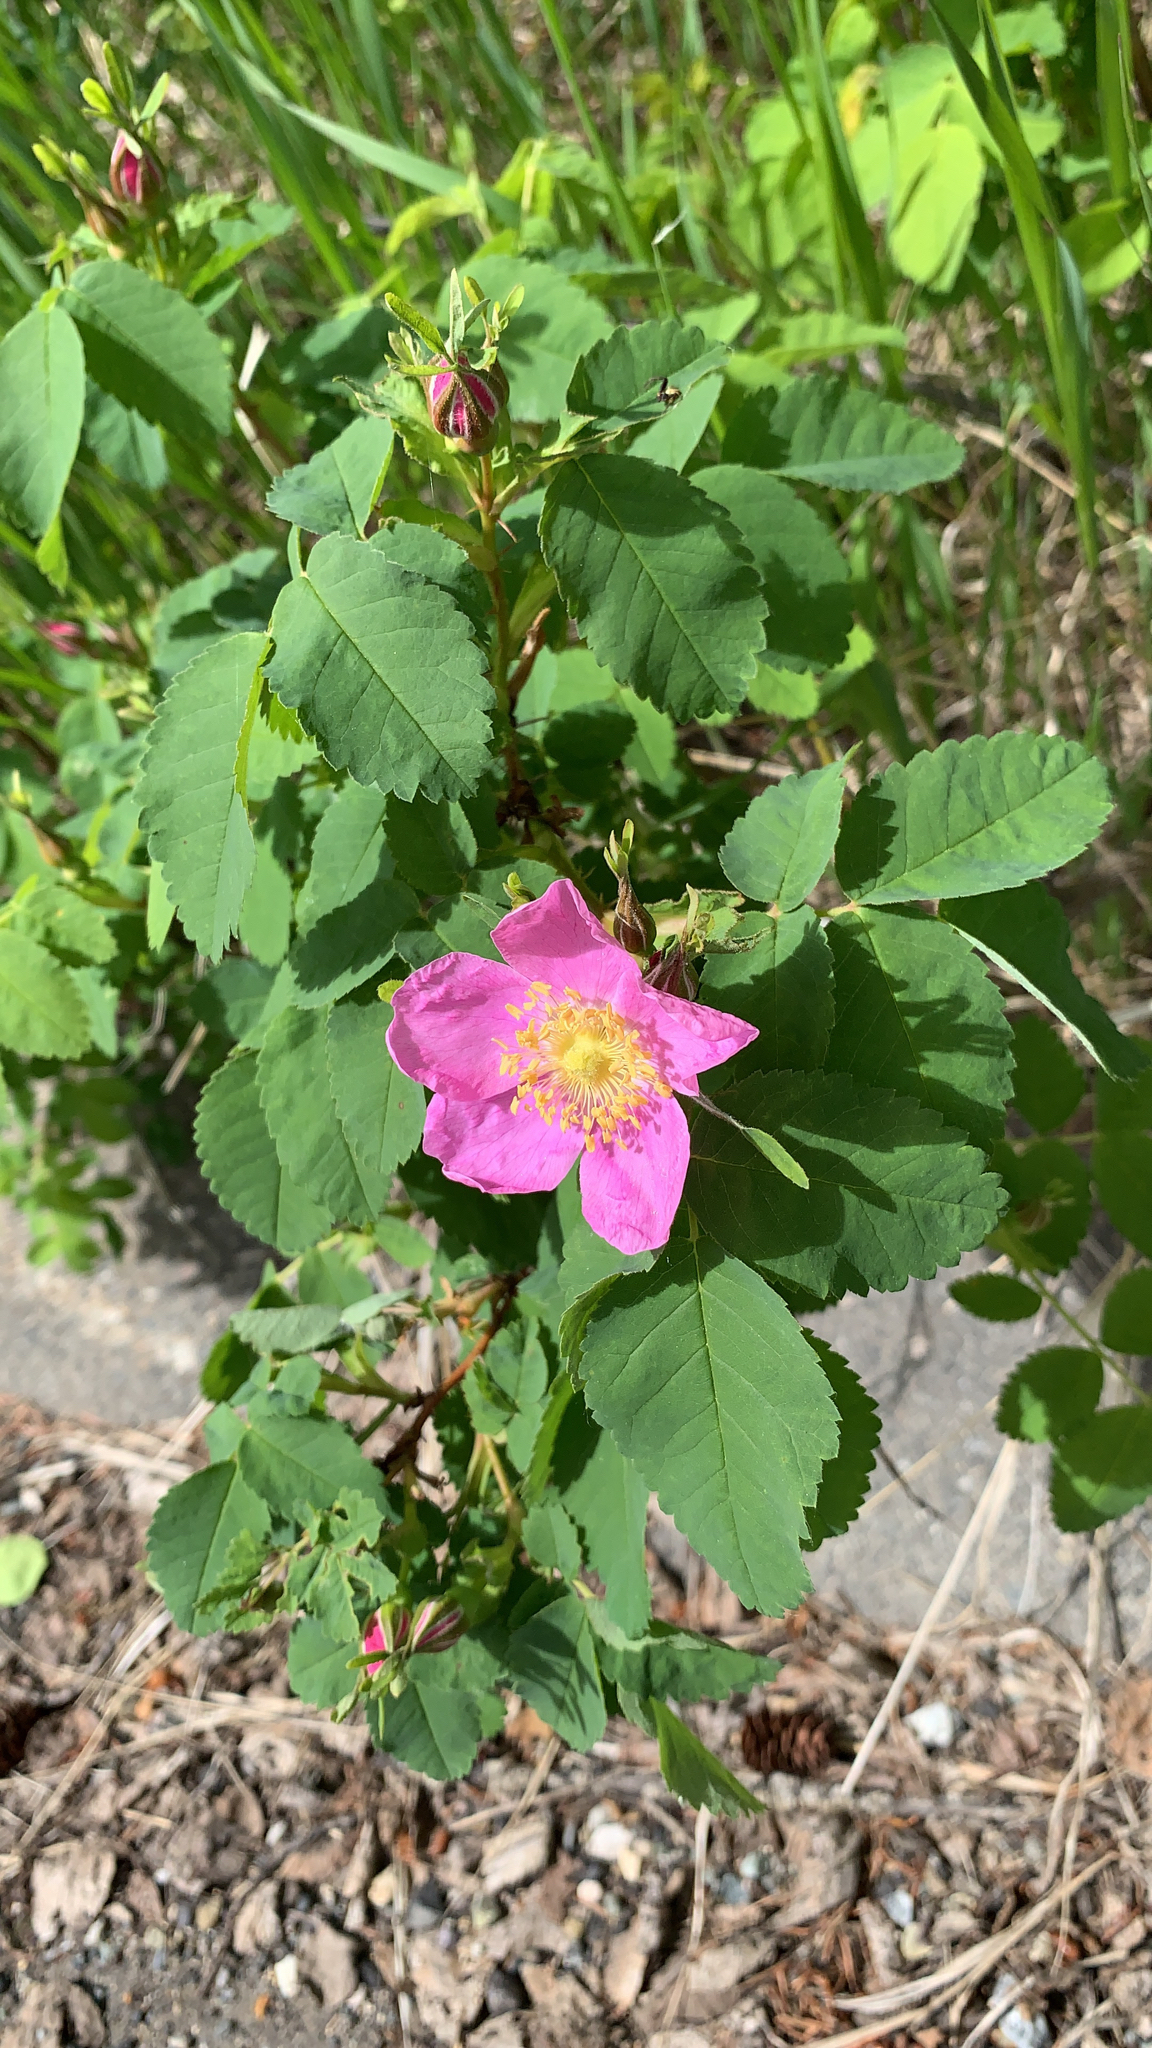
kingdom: Plantae
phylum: Tracheophyta
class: Magnoliopsida
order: Rosales
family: Rosaceae
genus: Rosa
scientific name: Rosa acicularis
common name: Prickly rose
